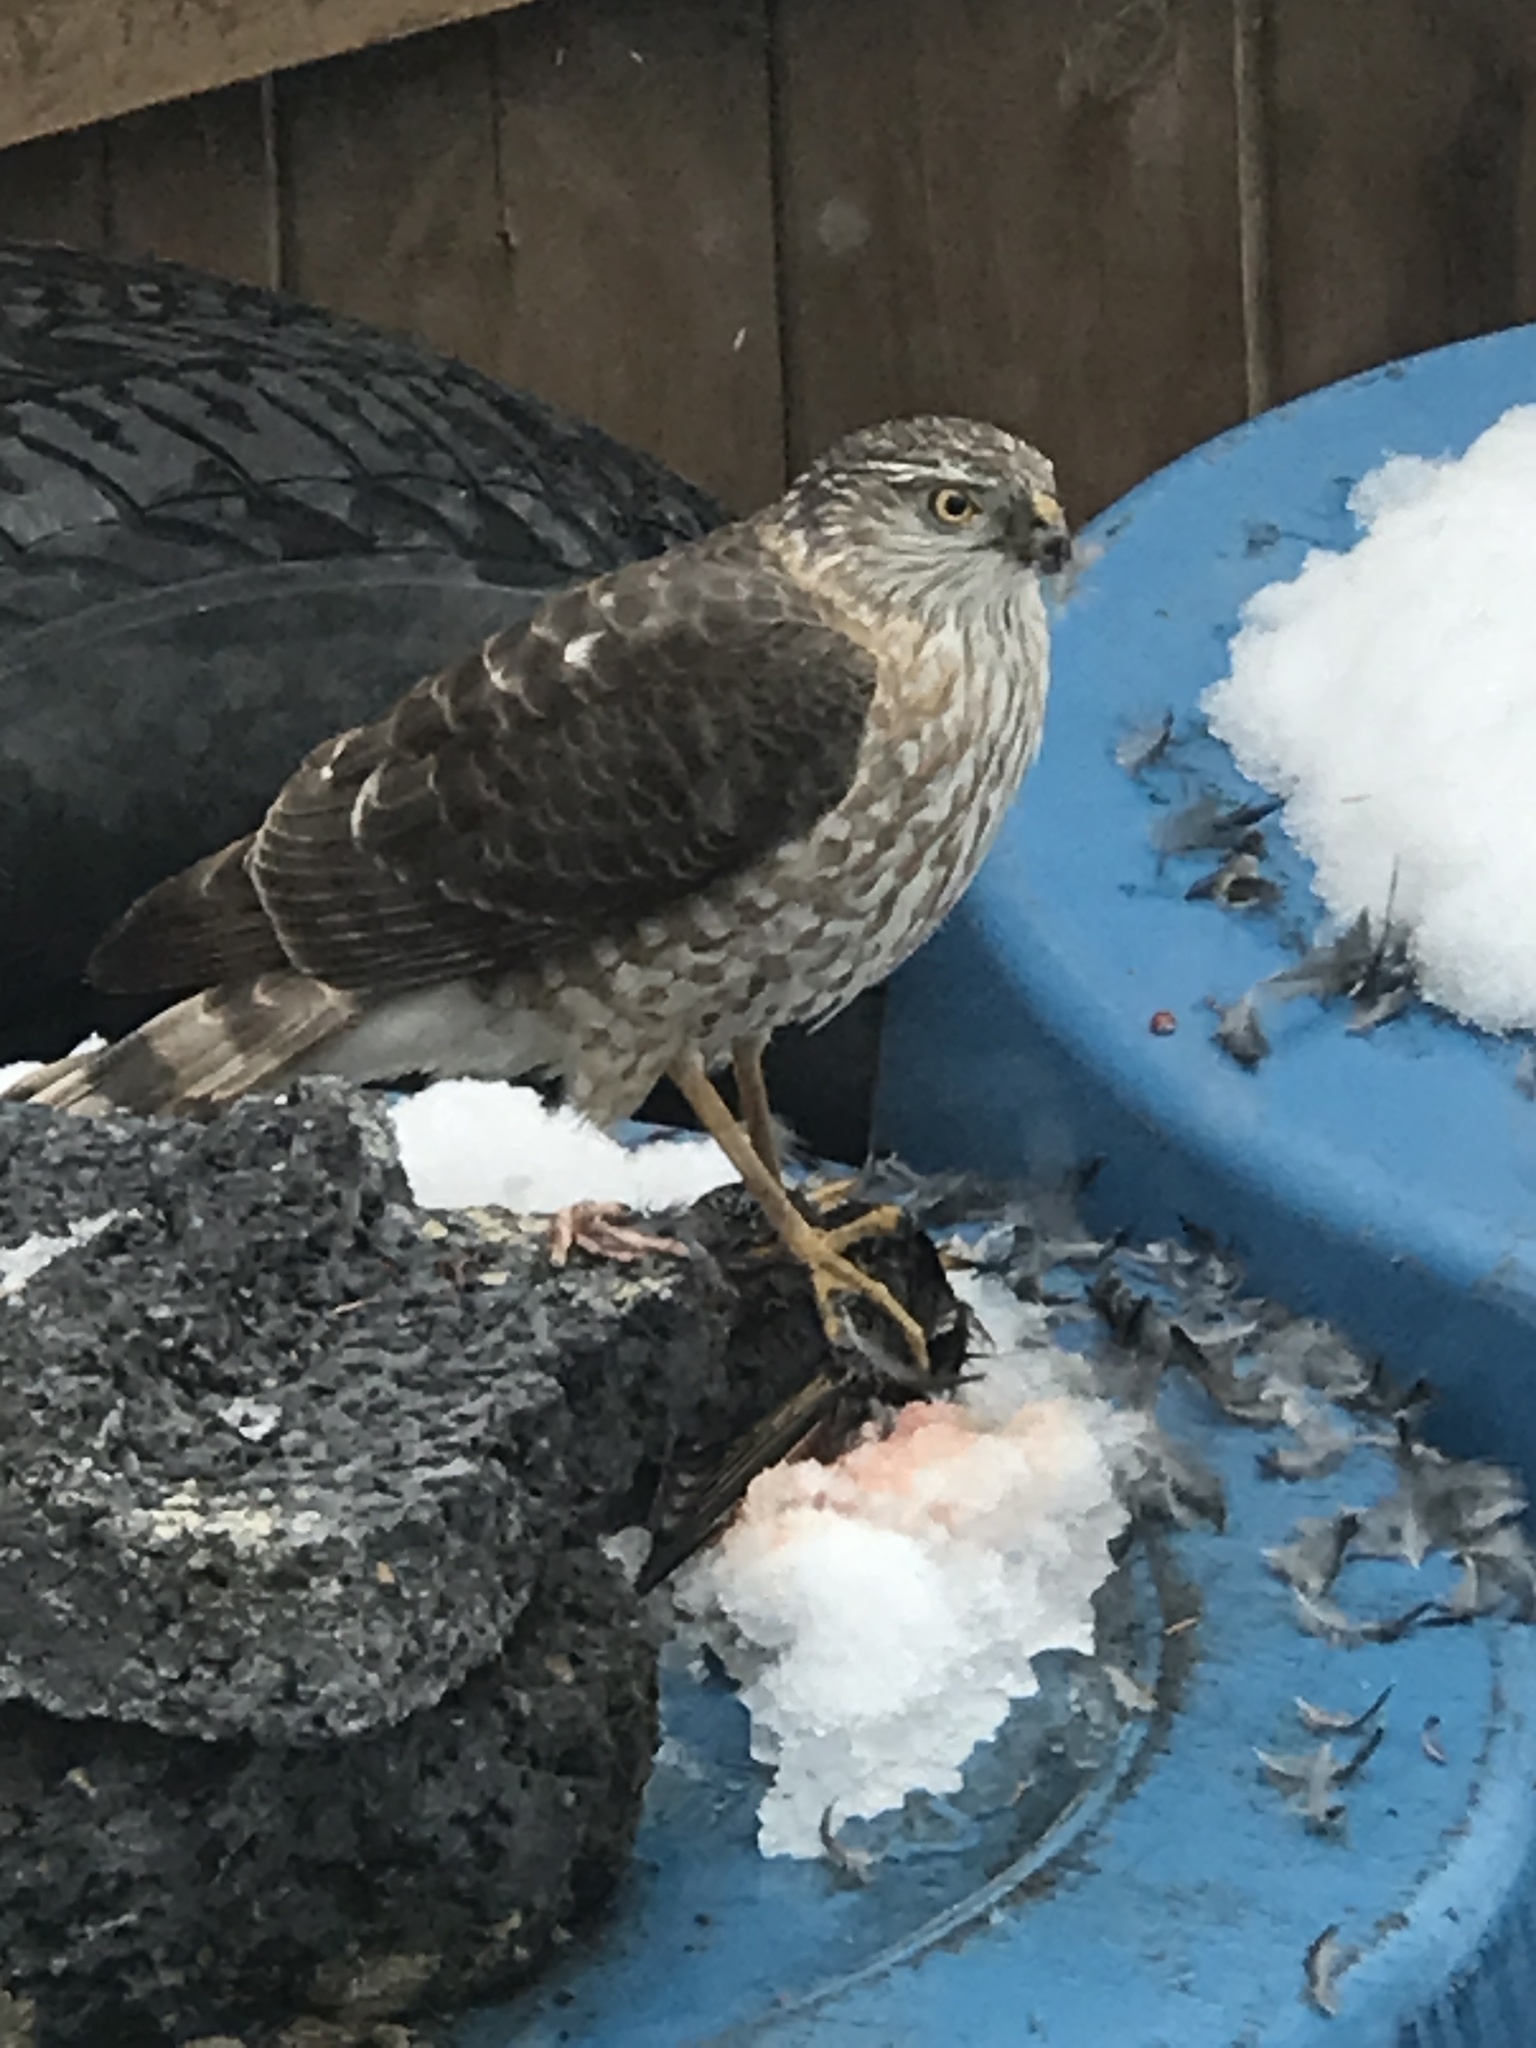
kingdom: Animalia
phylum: Chordata
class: Aves
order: Accipitriformes
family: Accipitridae
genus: Accipiter
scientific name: Accipiter striatus
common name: Sharp-shinned hawk
